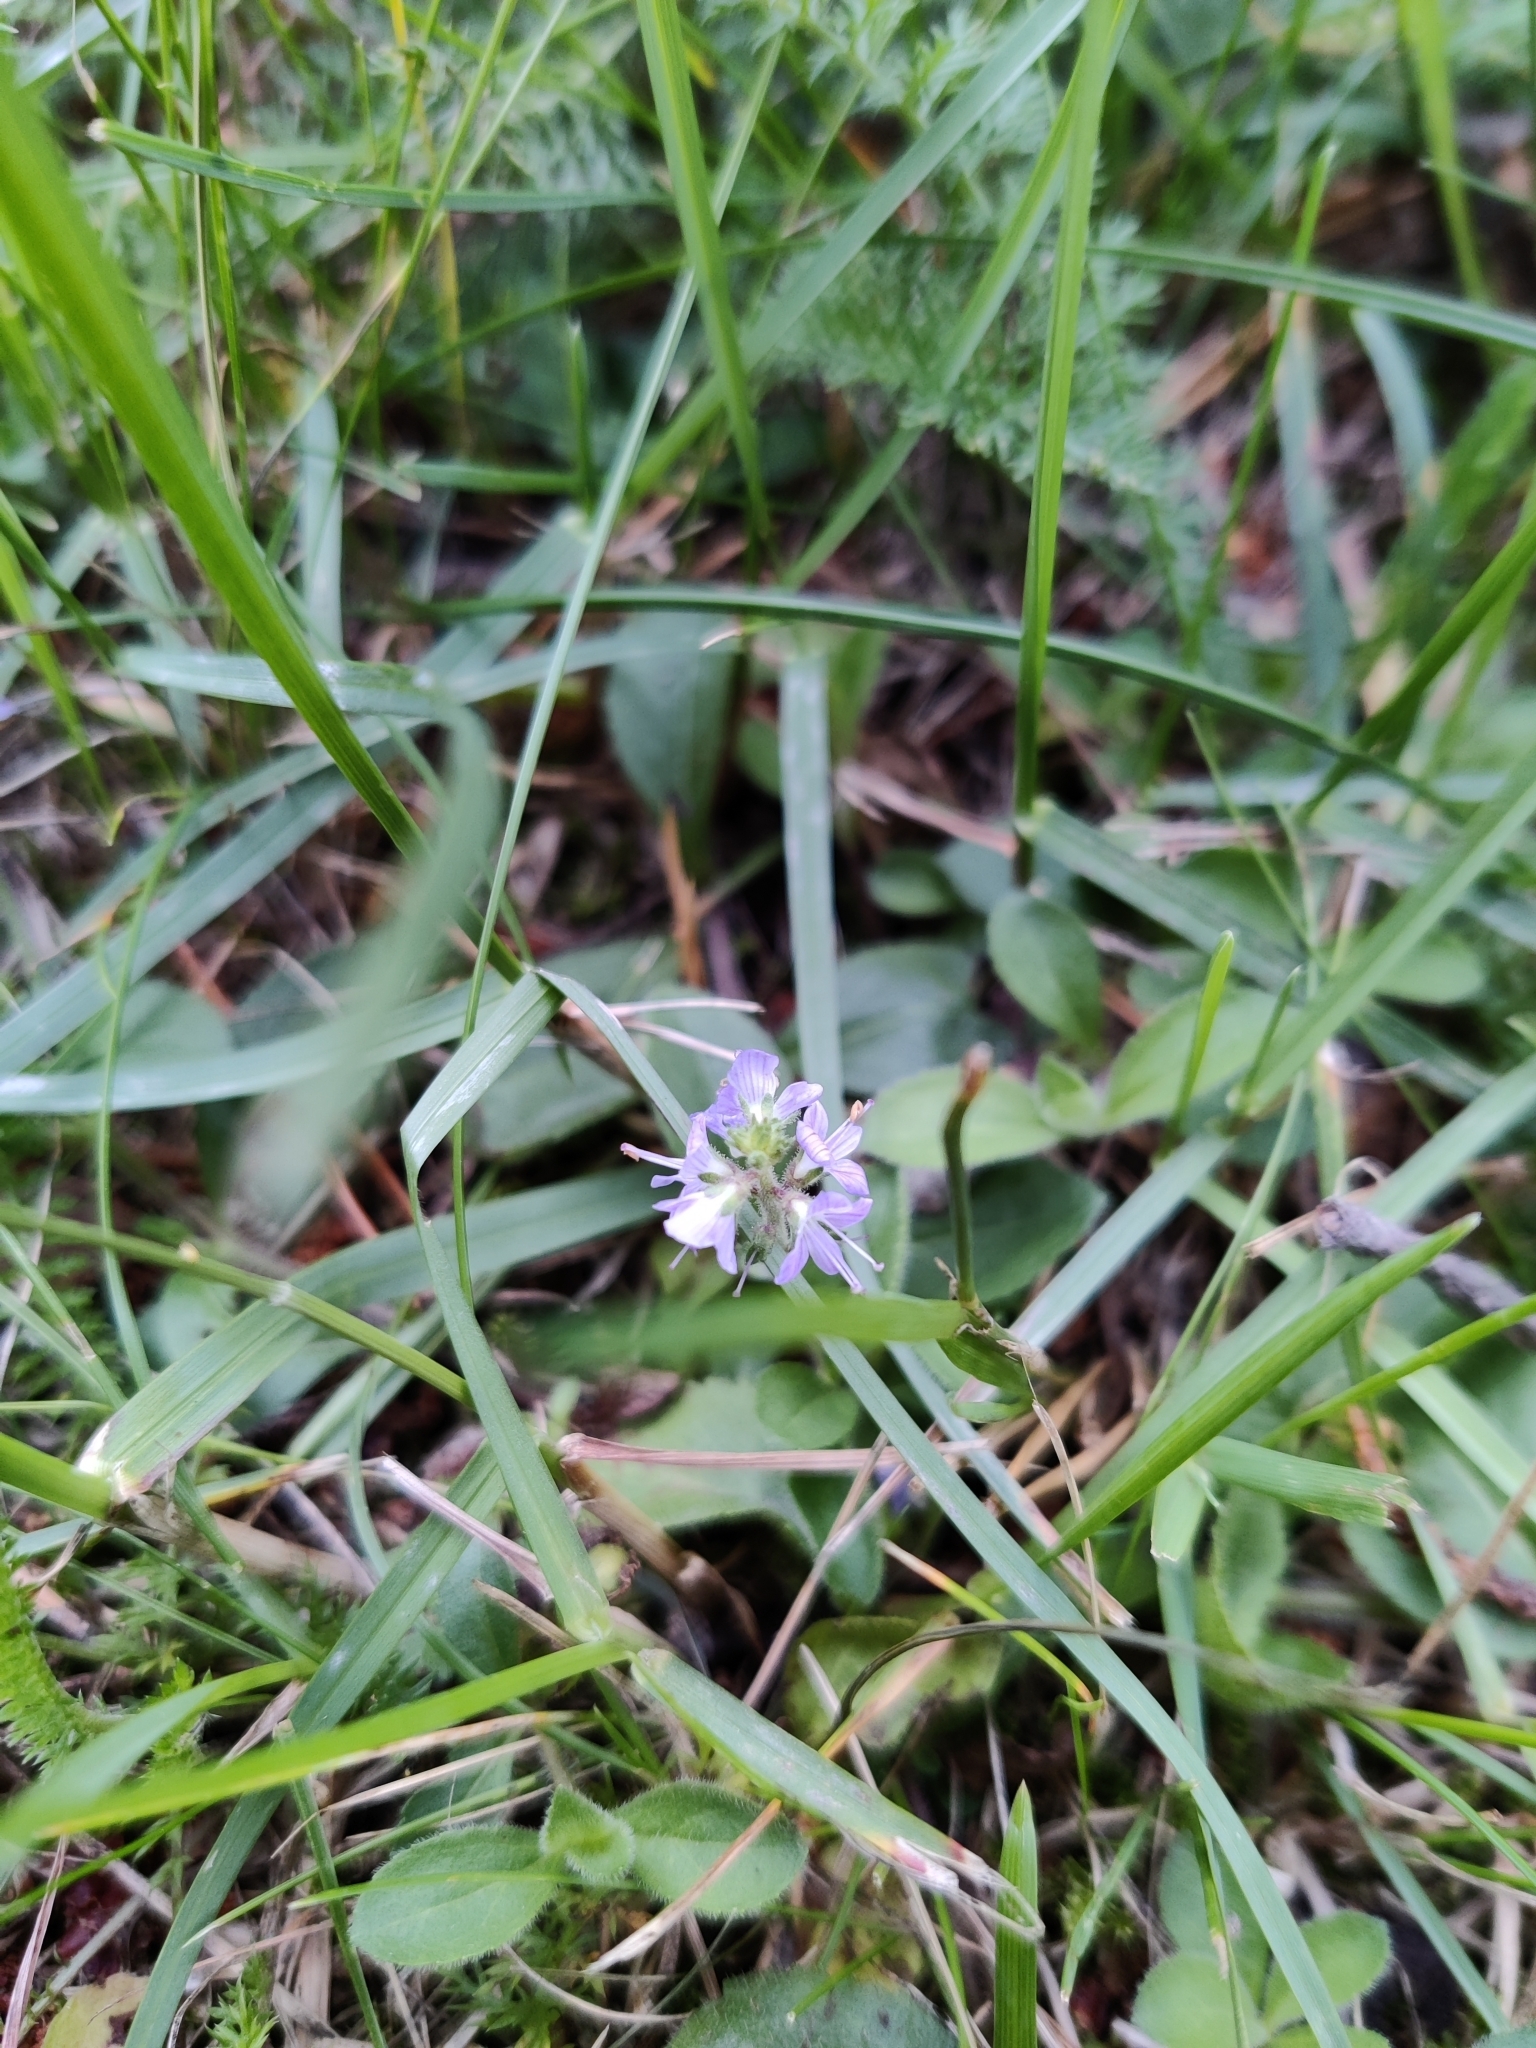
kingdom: Plantae
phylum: Tracheophyta
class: Magnoliopsida
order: Lamiales
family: Plantaginaceae
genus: Veronica
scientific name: Veronica officinalis
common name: Common speedwell
